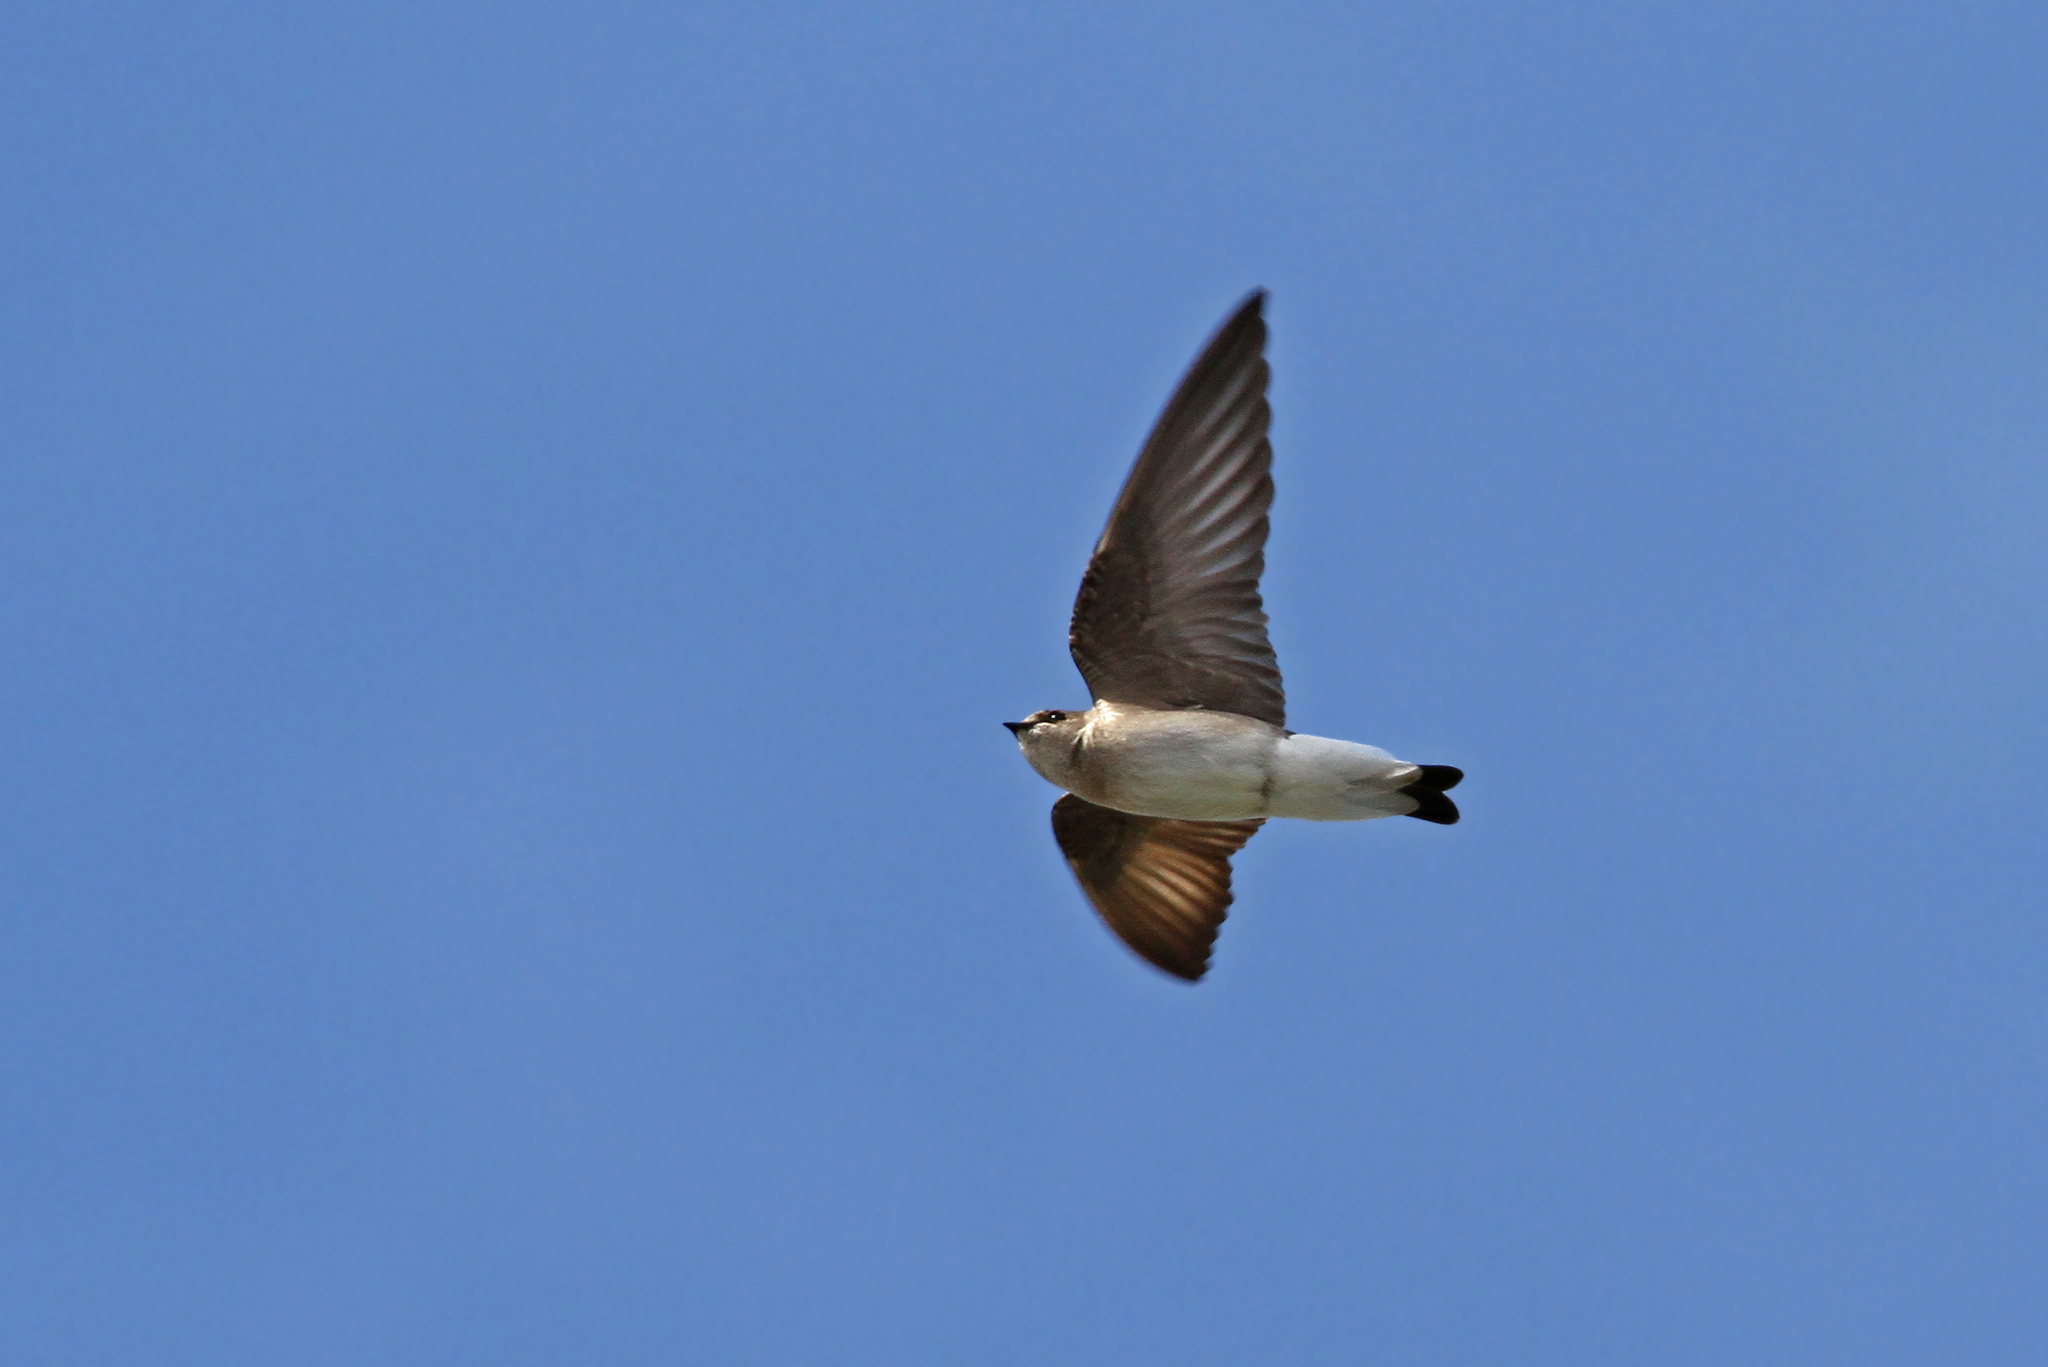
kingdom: Animalia
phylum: Chordata
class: Aves
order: Passeriformes
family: Hirundinidae
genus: Stelgidopteryx
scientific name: Stelgidopteryx serripennis
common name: Northern rough-winged swallow
